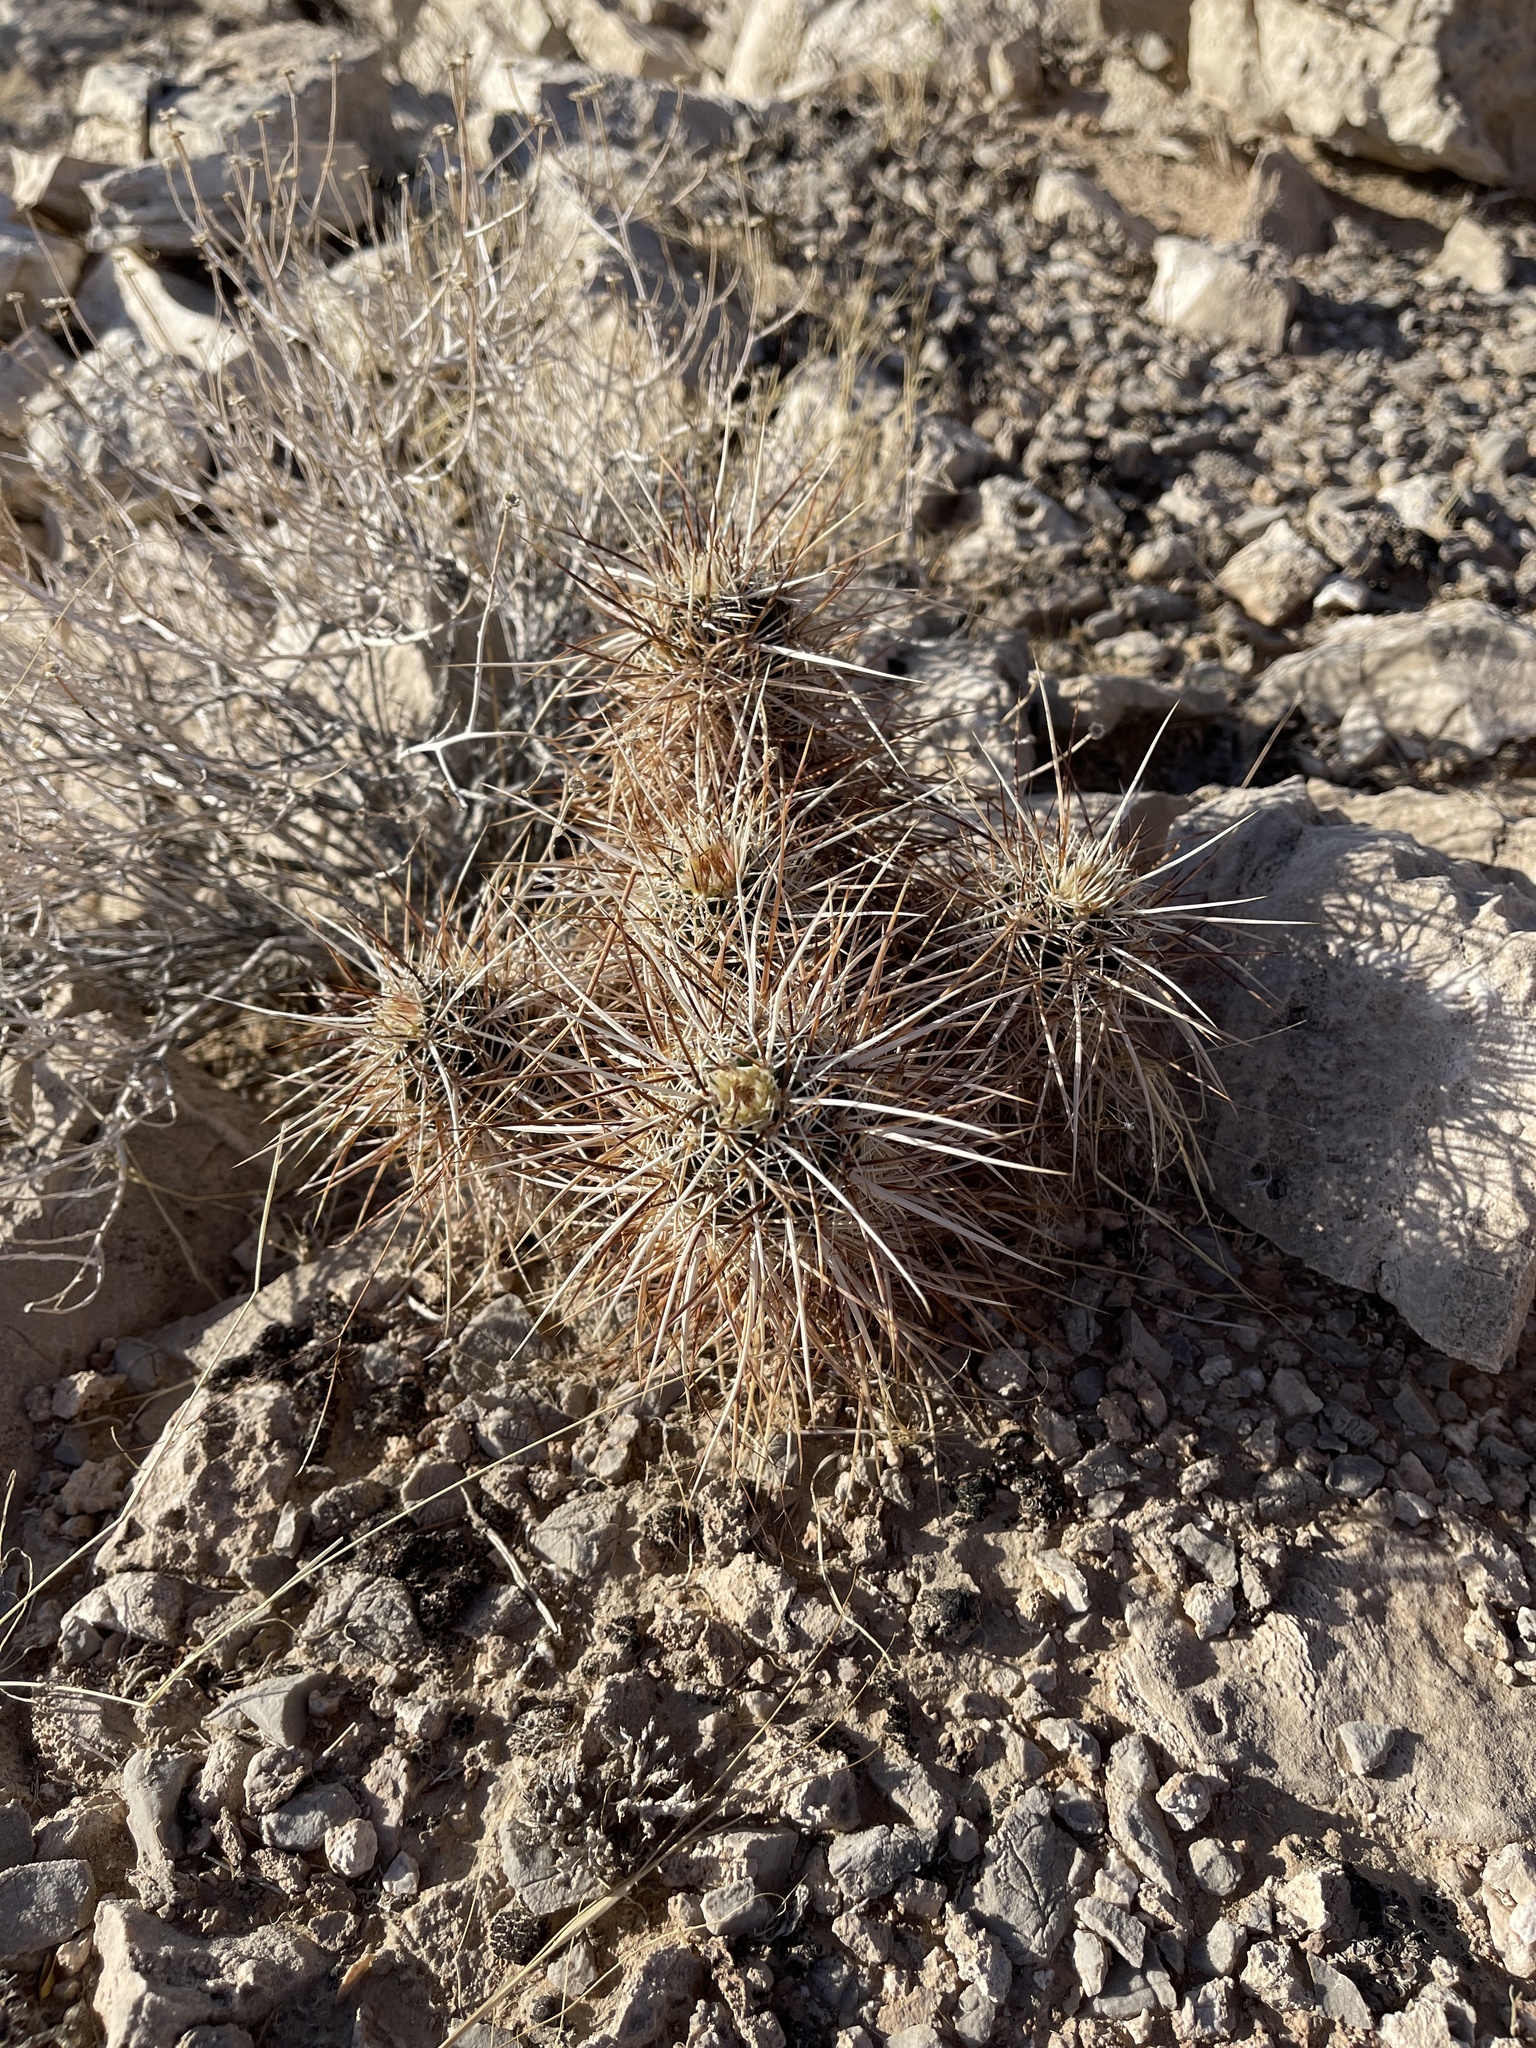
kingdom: Plantae
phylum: Tracheophyta
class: Magnoliopsida
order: Caryophyllales
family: Cactaceae
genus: Echinocereus
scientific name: Echinocereus engelmannii
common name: Engelmann's hedgehog cactus
